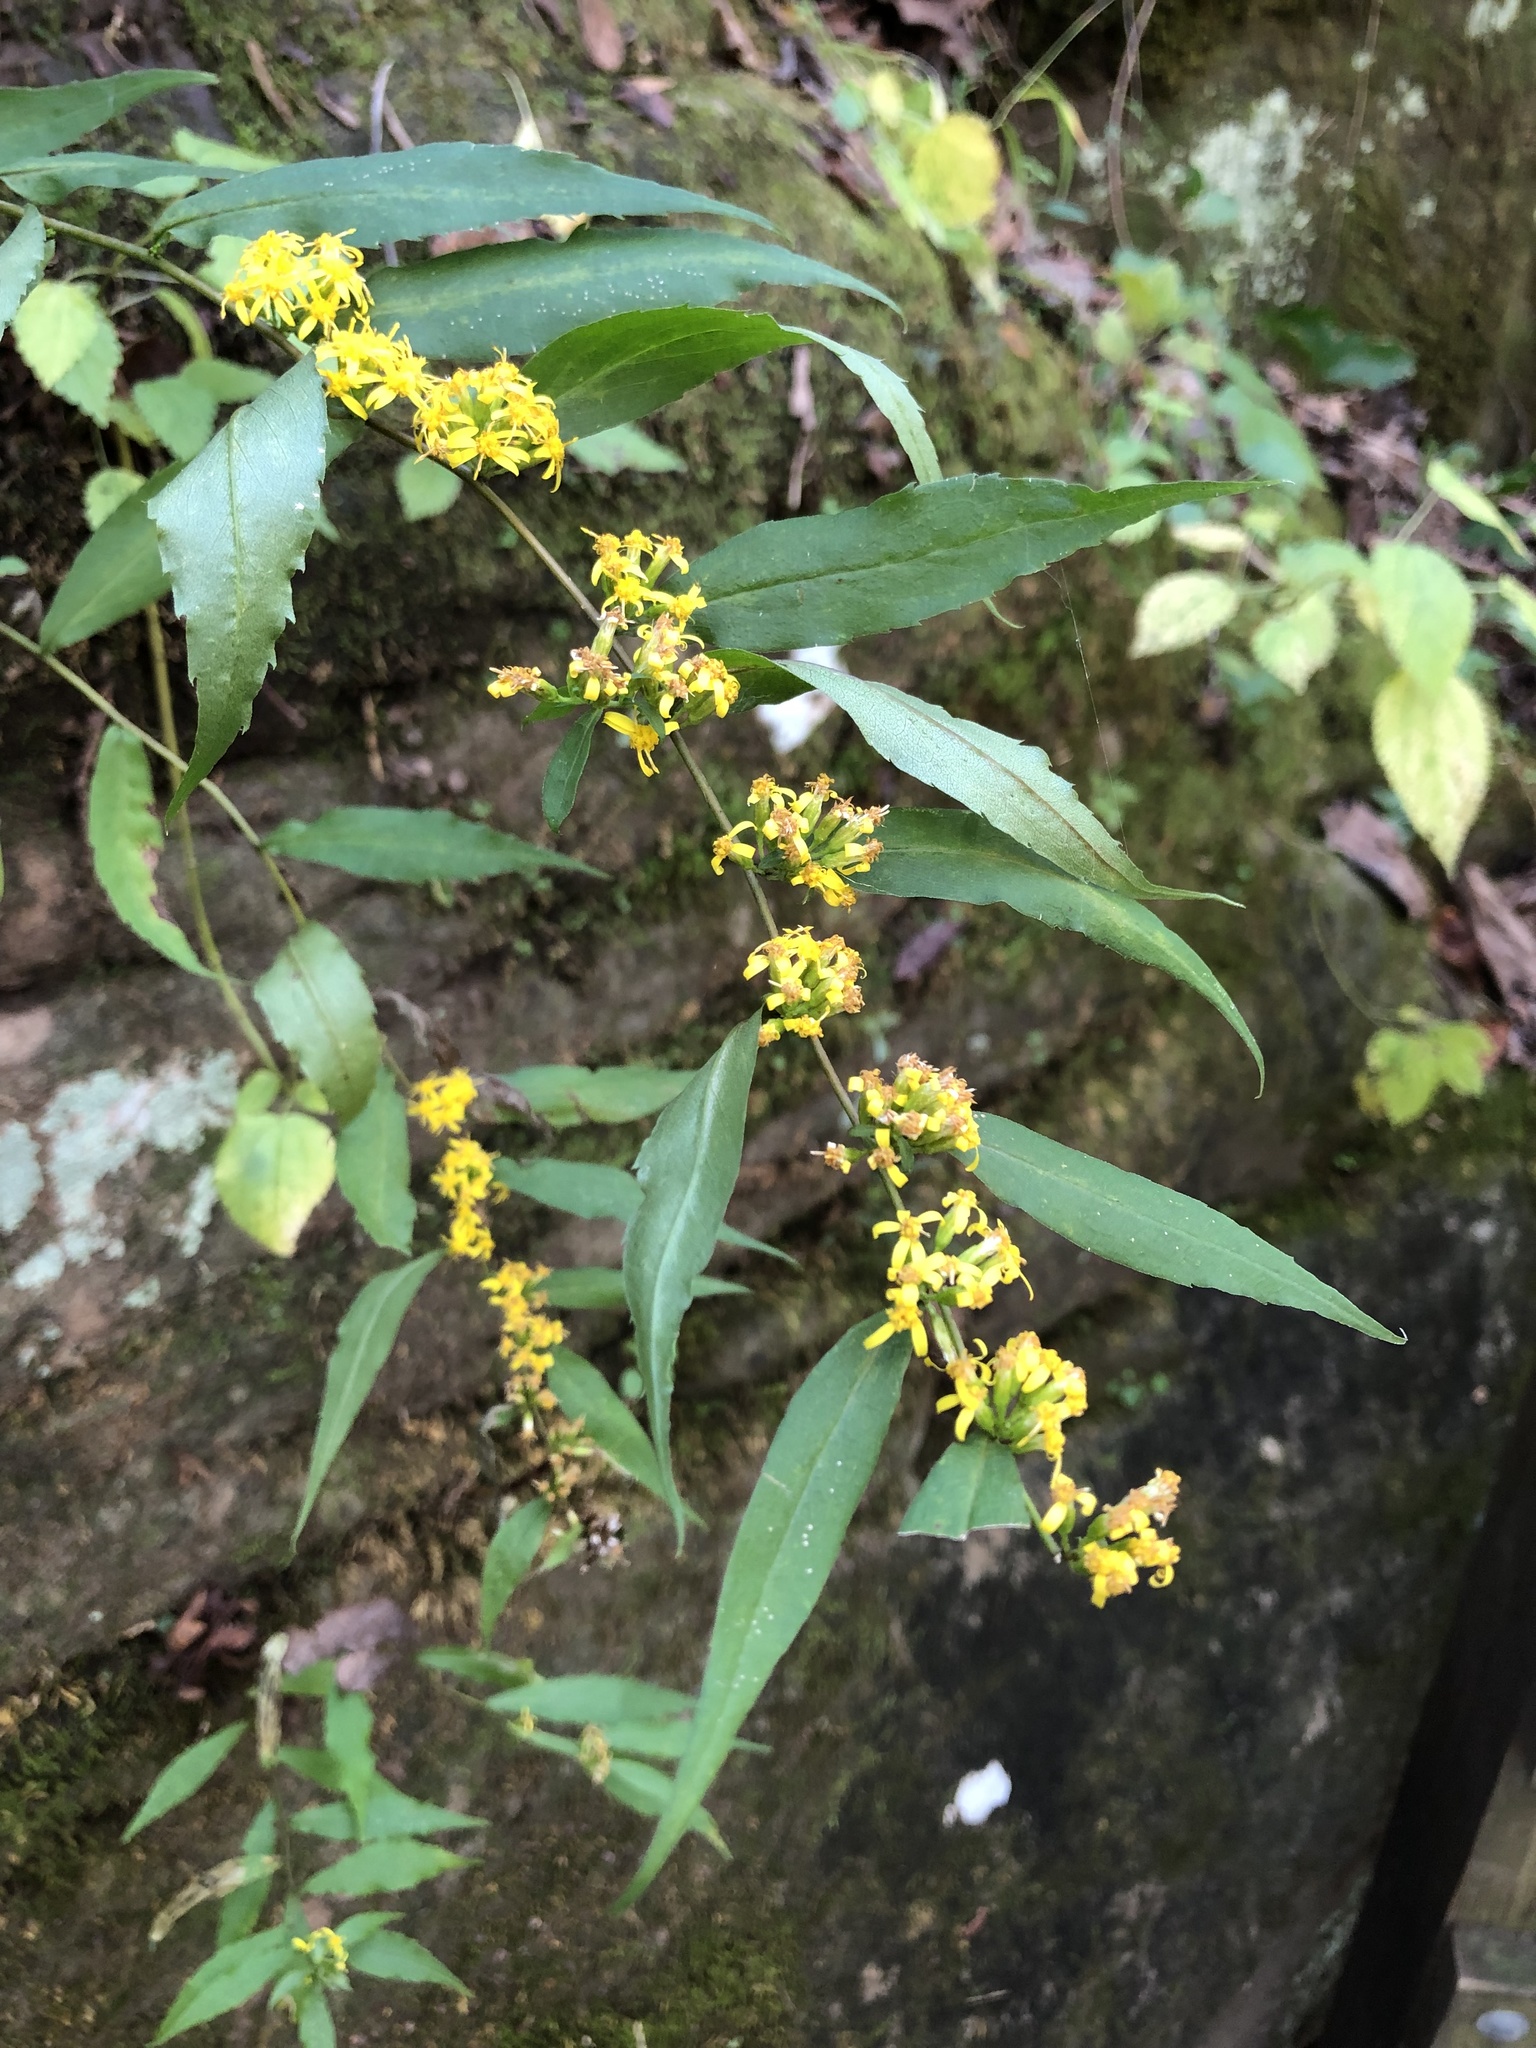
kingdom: Plantae
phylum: Tracheophyta
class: Magnoliopsida
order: Asterales
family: Asteraceae
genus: Solidago
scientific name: Solidago caesia
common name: Woodland goldenrod
